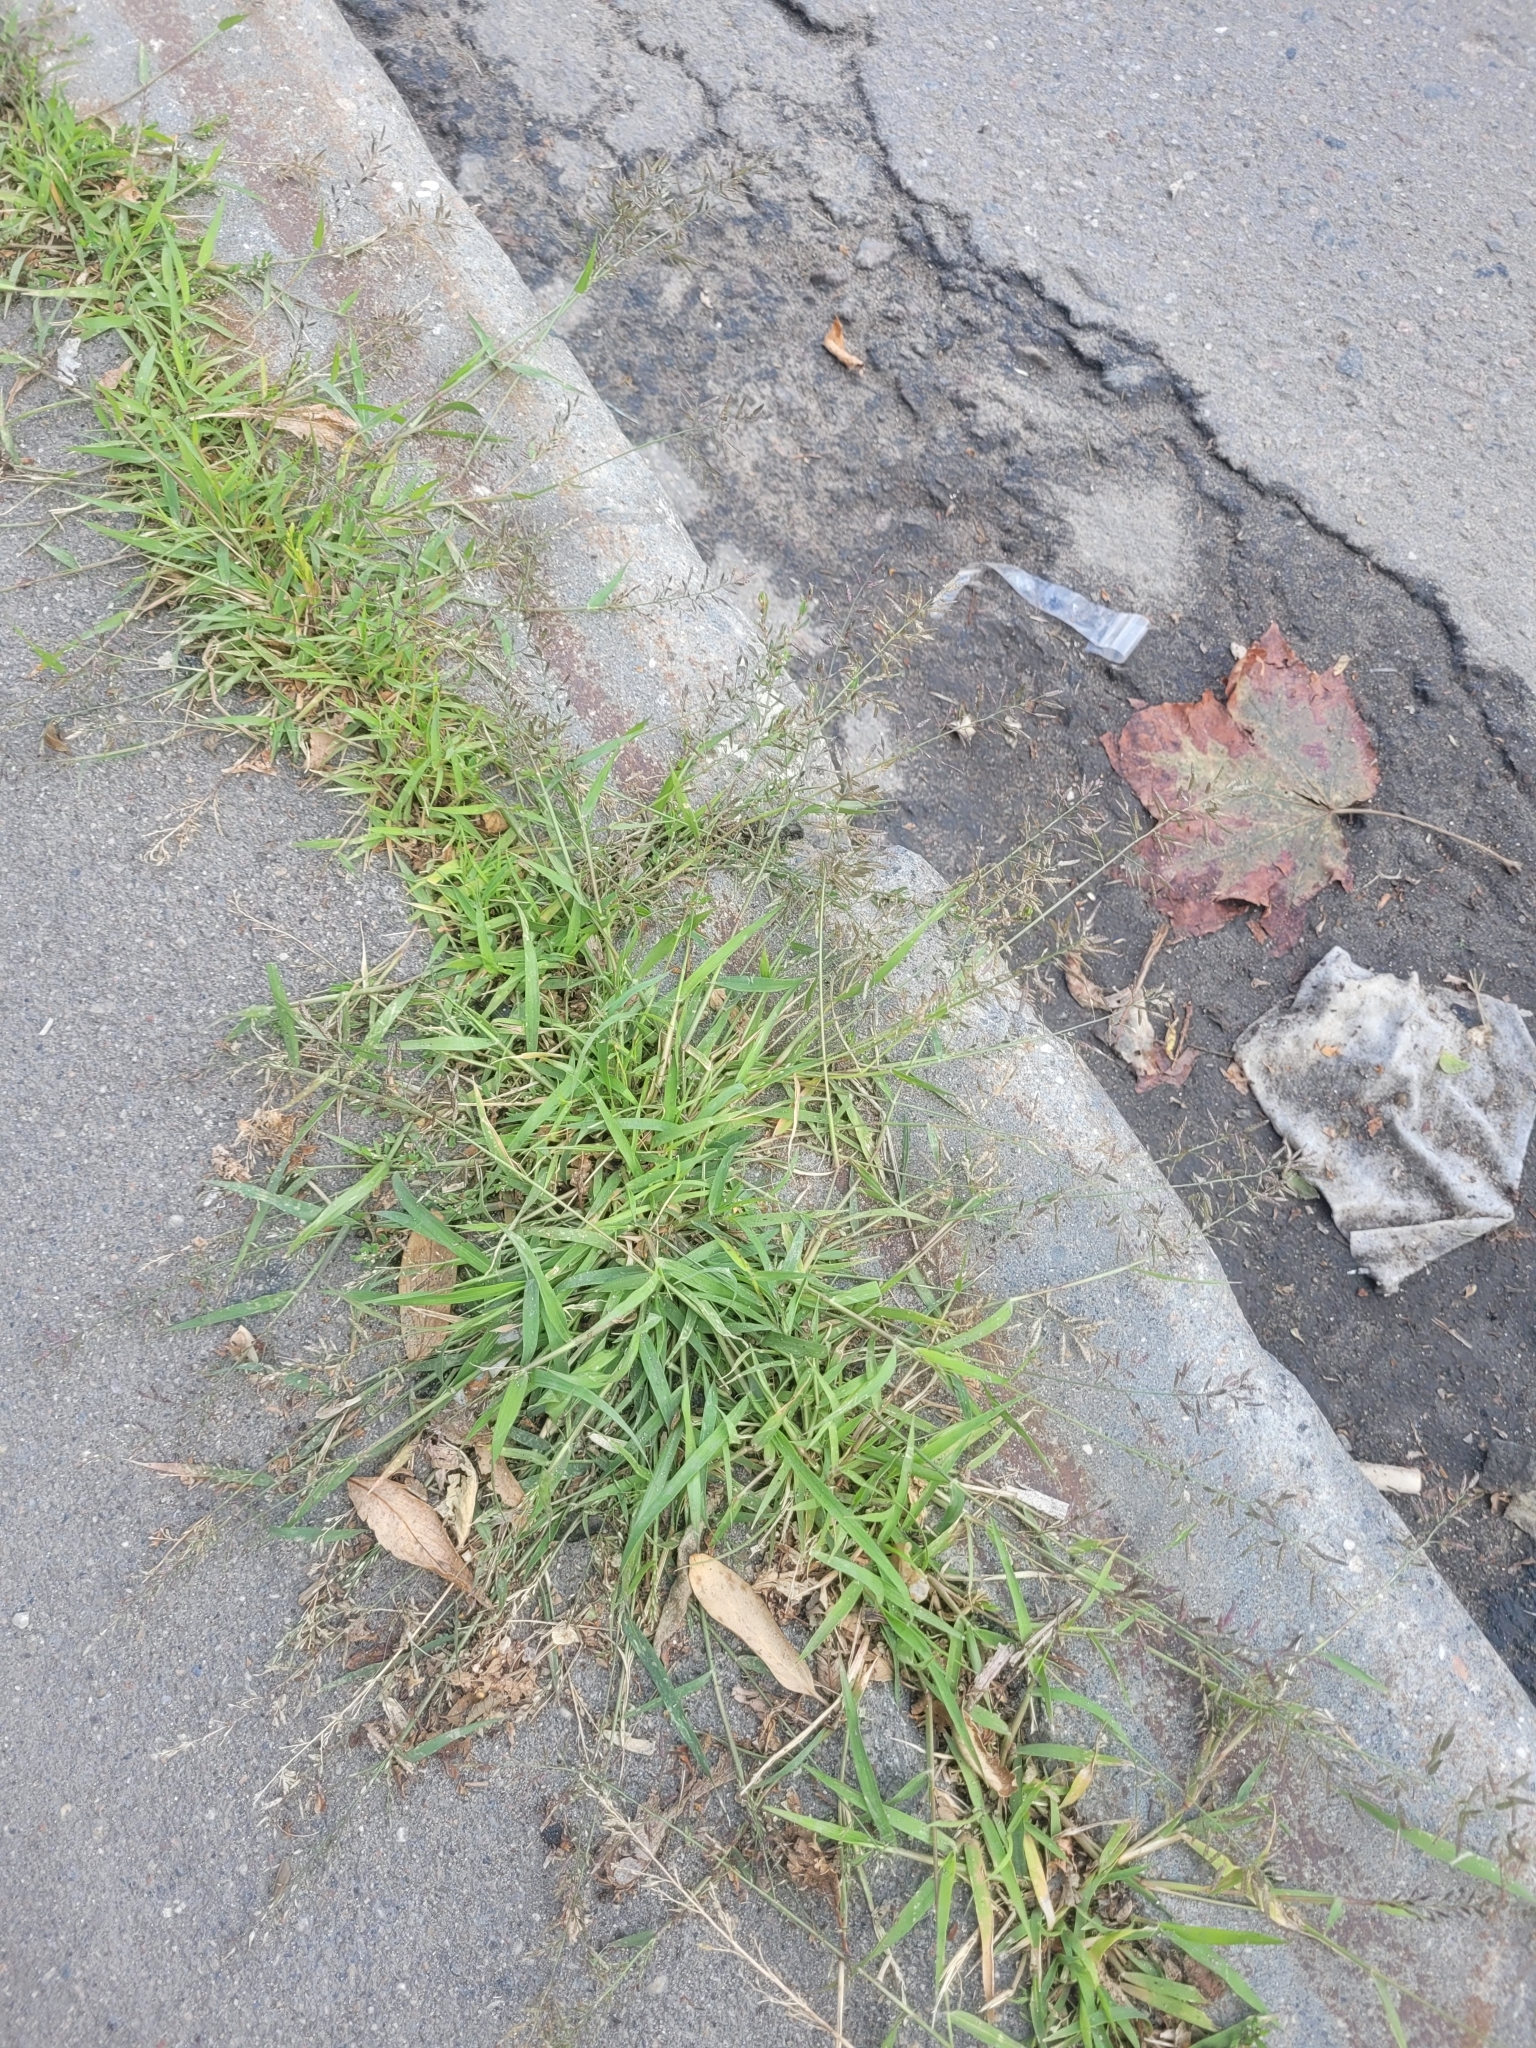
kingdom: Plantae
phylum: Tracheophyta
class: Liliopsida
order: Poales
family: Poaceae
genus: Eragrostis
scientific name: Eragrostis minor
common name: Small love-grass
